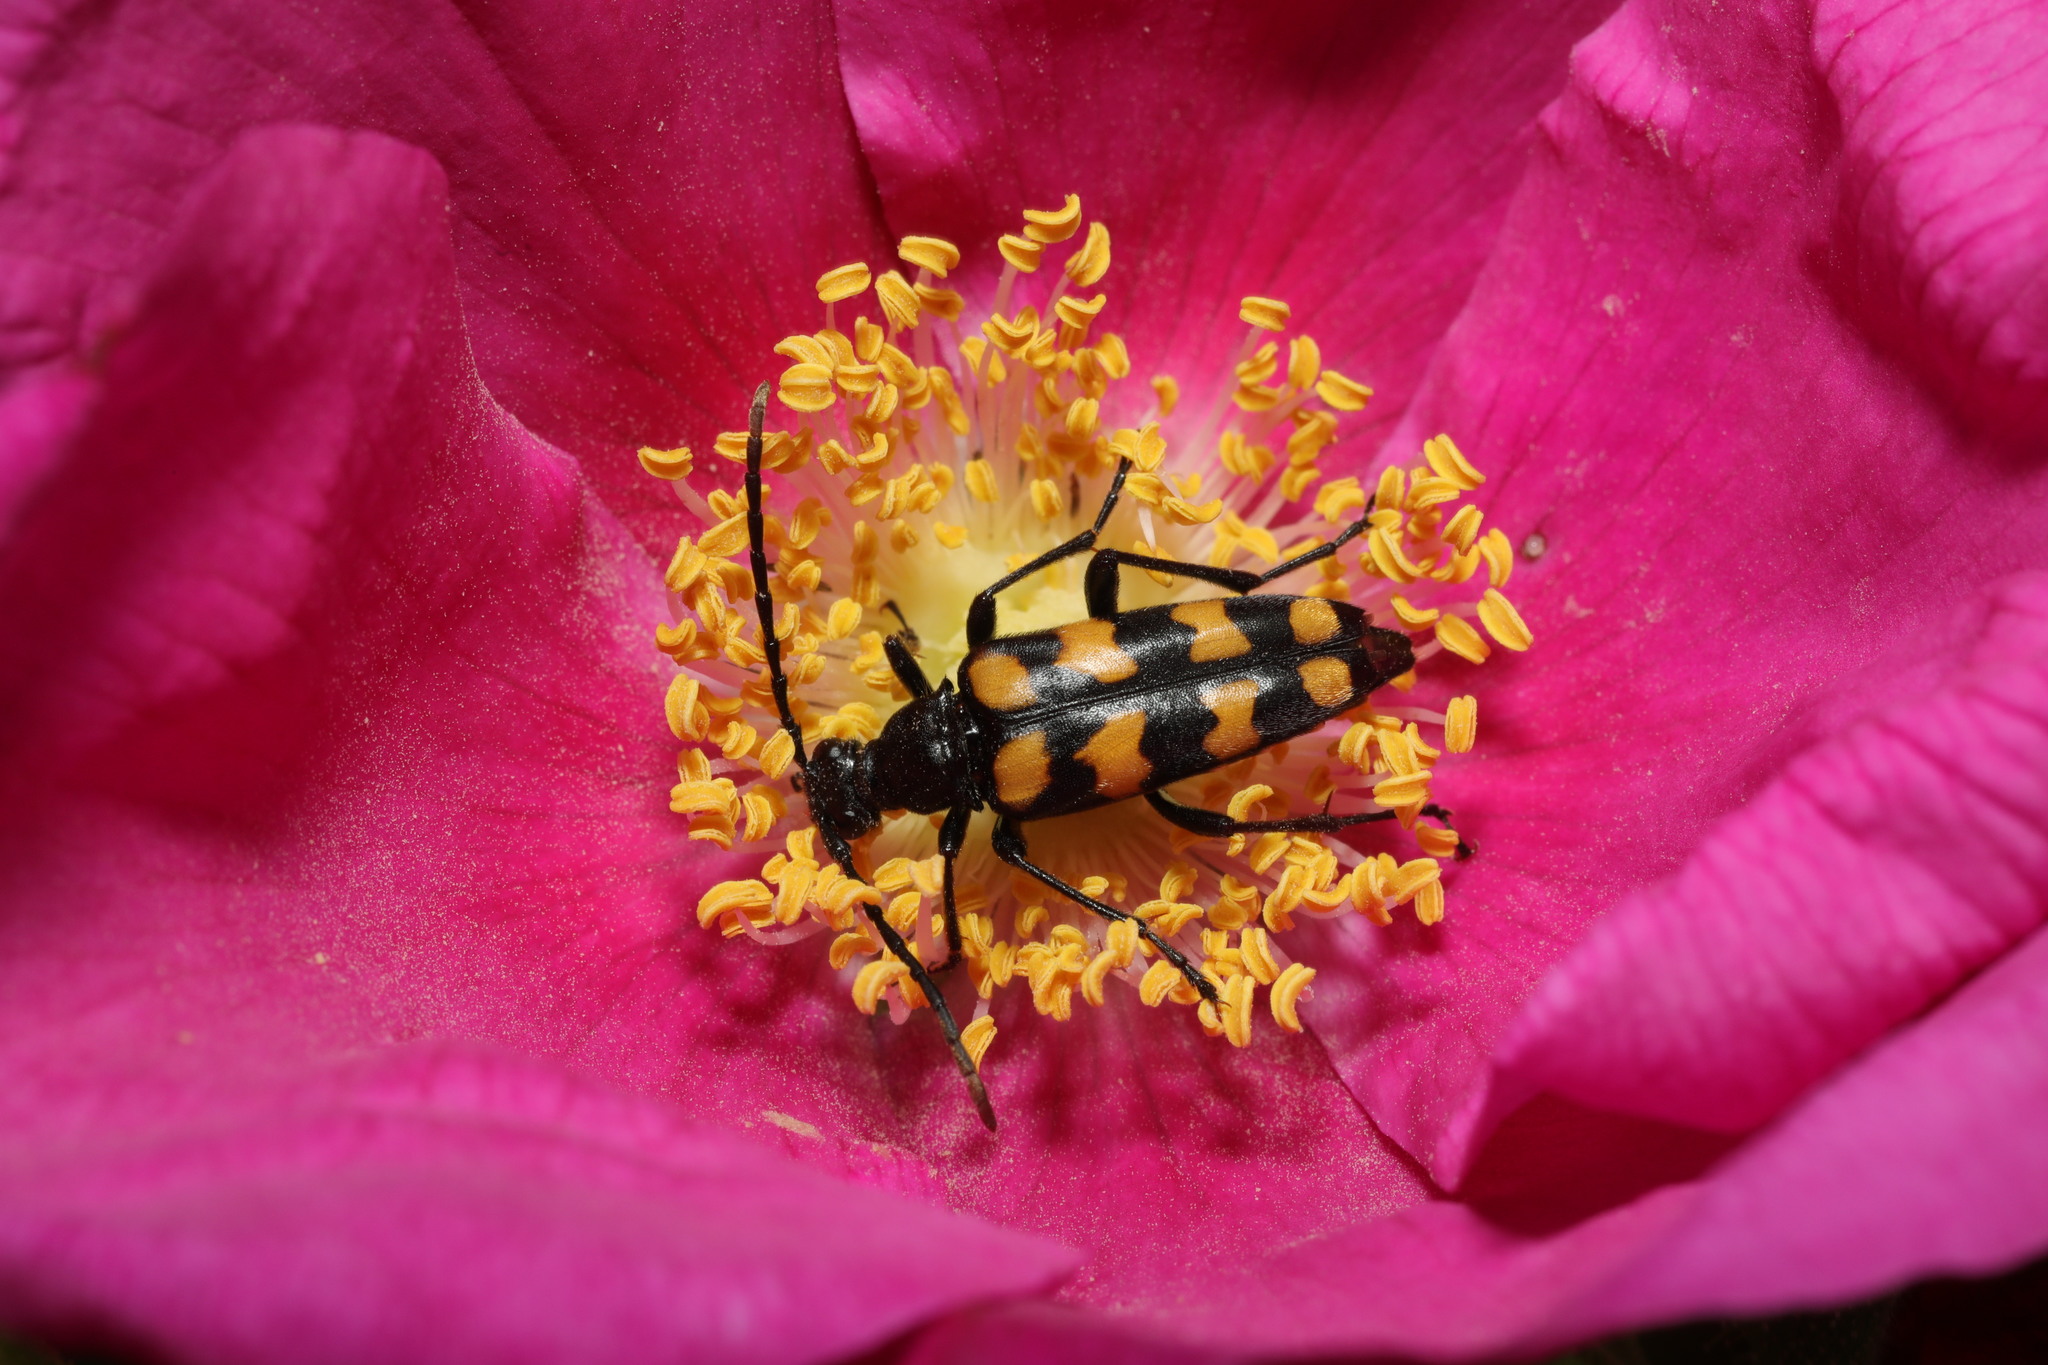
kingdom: Animalia
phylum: Arthropoda
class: Insecta
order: Coleoptera
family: Cerambycidae
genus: Leptura
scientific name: Leptura quadrifasciata
